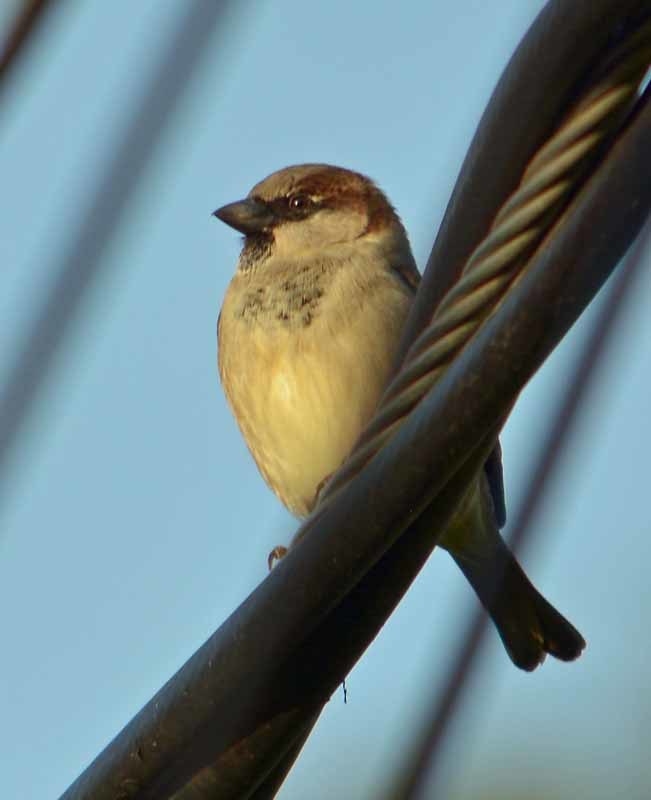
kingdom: Animalia
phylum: Chordata
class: Aves
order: Passeriformes
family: Passeridae
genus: Passer
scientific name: Passer domesticus
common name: House sparrow
